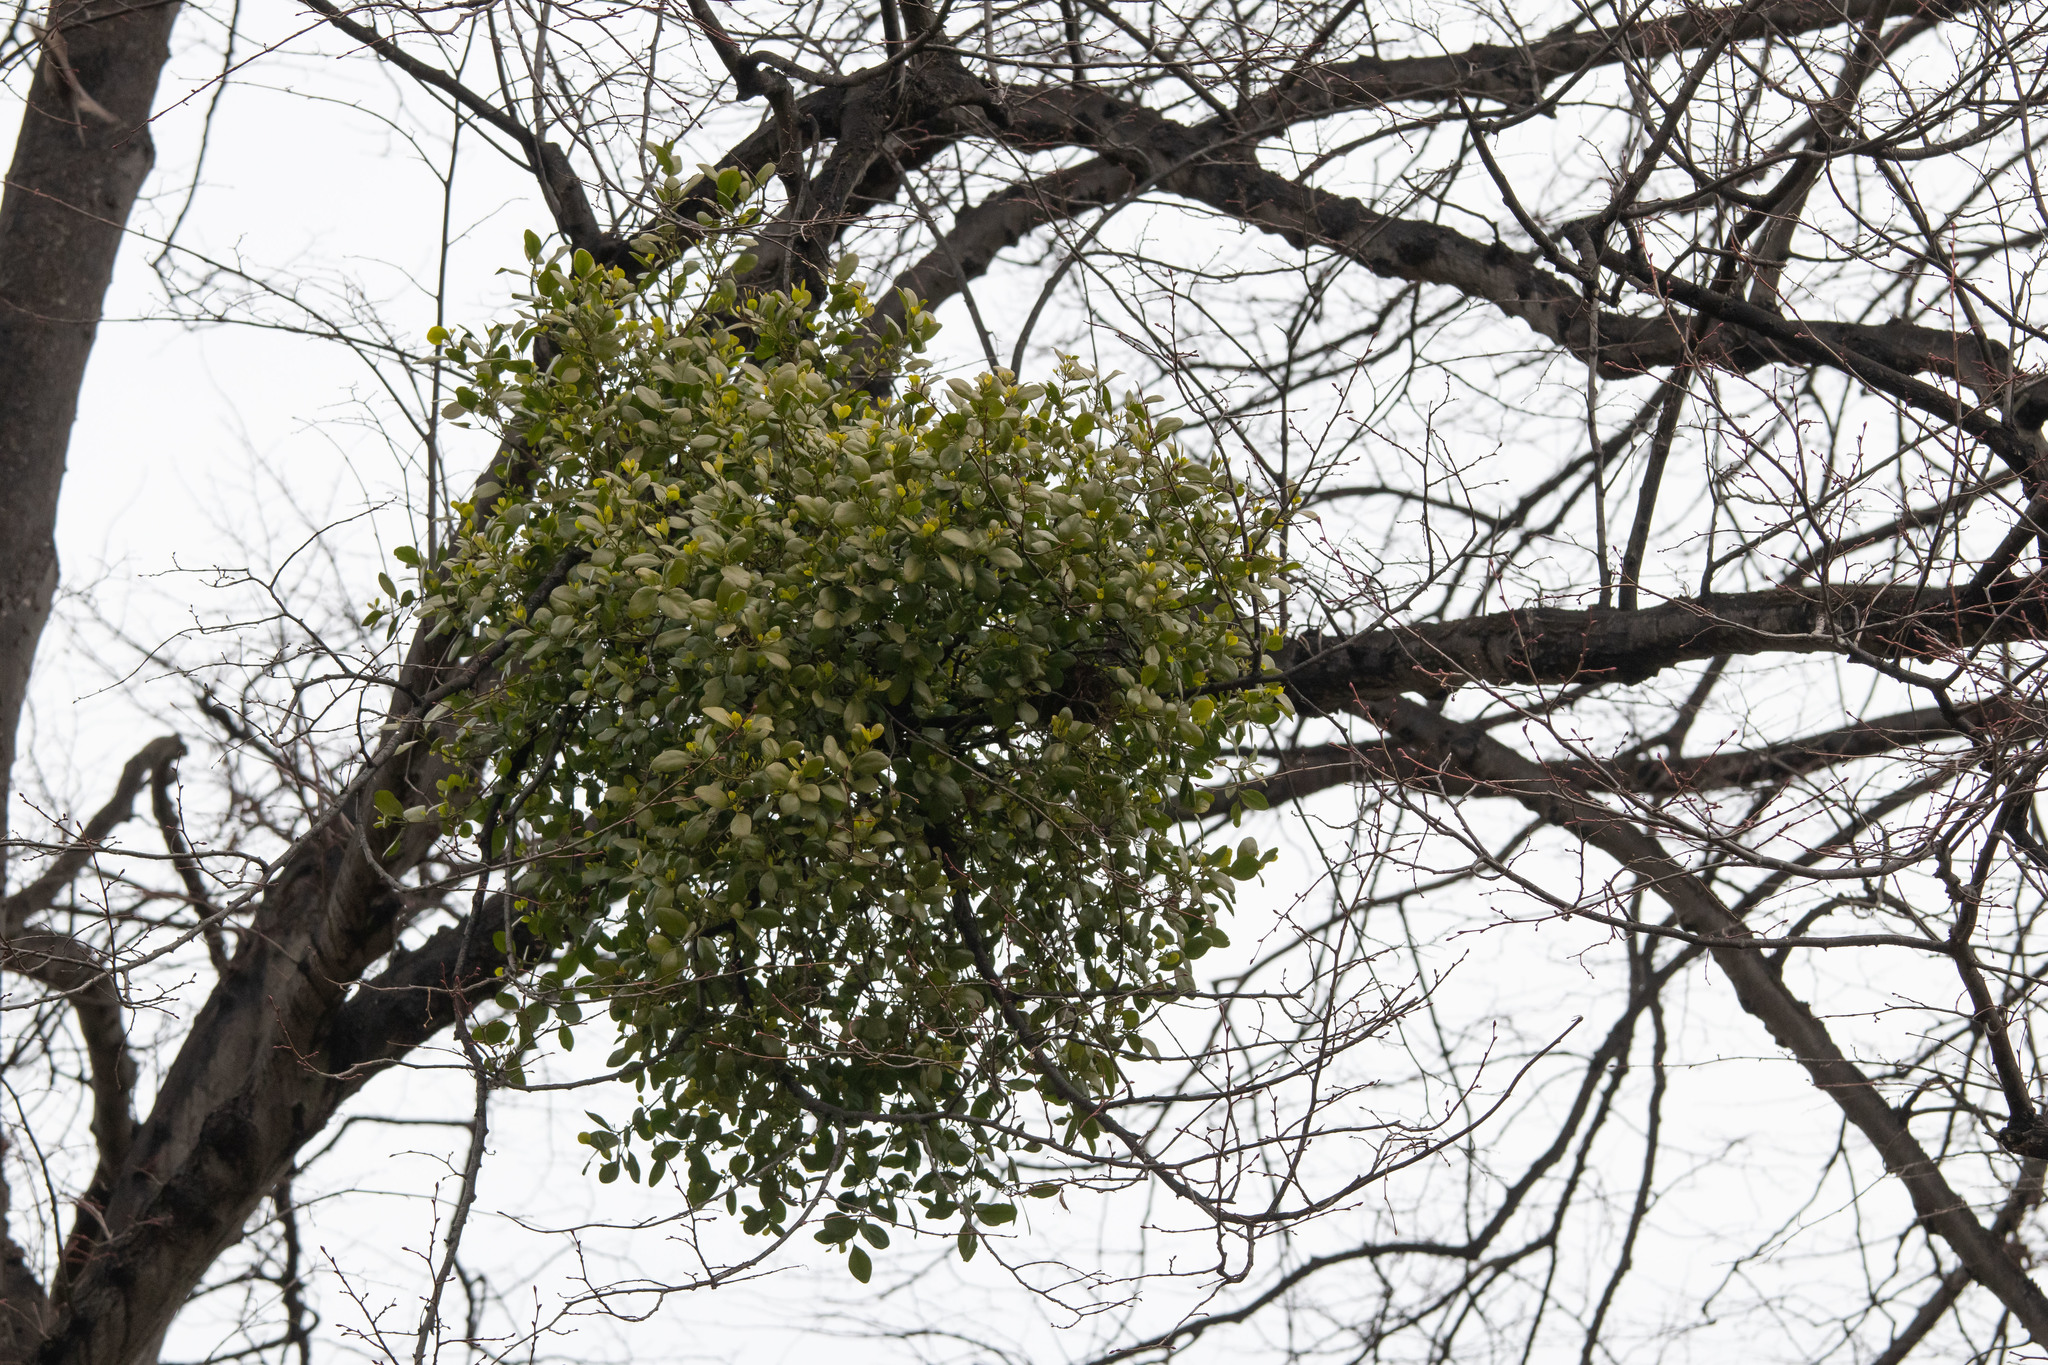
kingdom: Plantae
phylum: Tracheophyta
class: Magnoliopsida
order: Santalales
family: Loranthaceae
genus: Ileostylus
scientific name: Ileostylus micranthus
